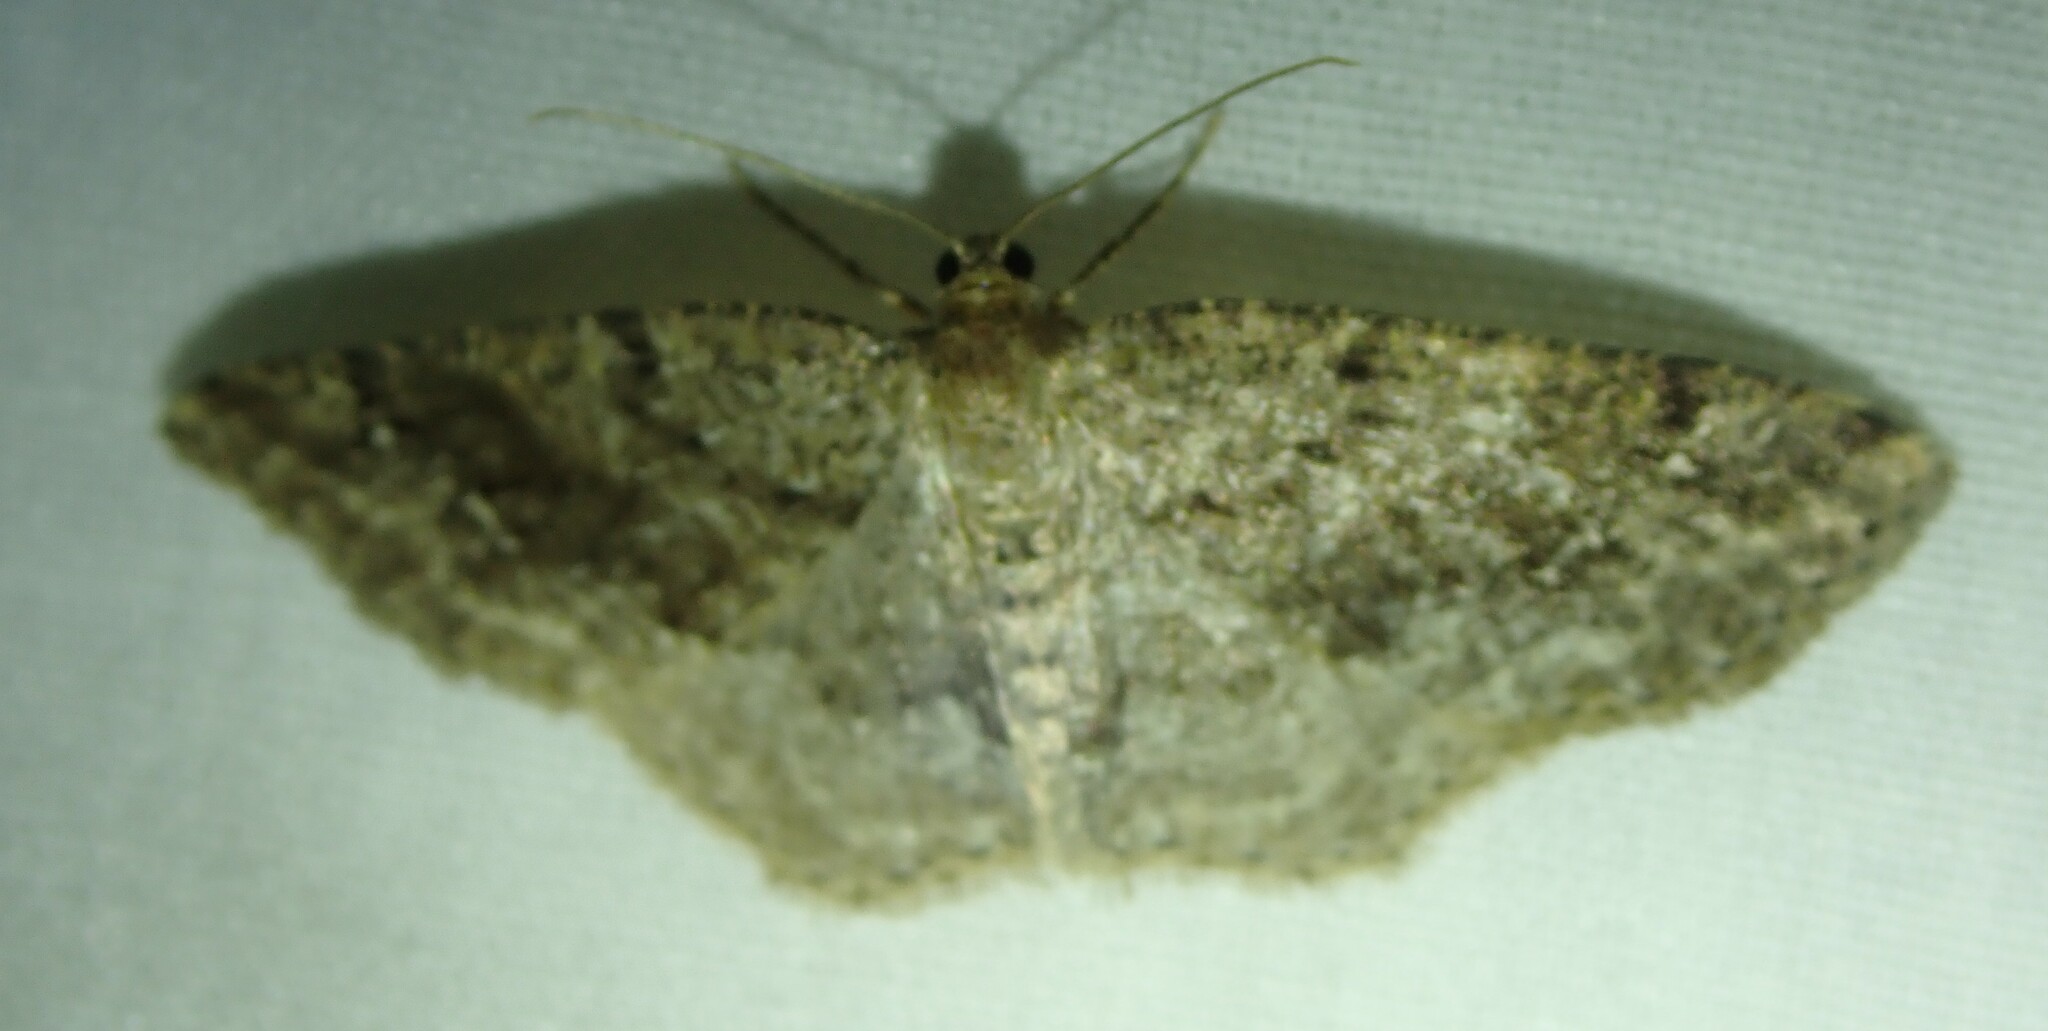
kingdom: Animalia
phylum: Arthropoda
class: Insecta
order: Lepidoptera
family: Geometridae
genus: Homochlodes
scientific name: Homochlodes fritillaria
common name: Pale homochlodes
